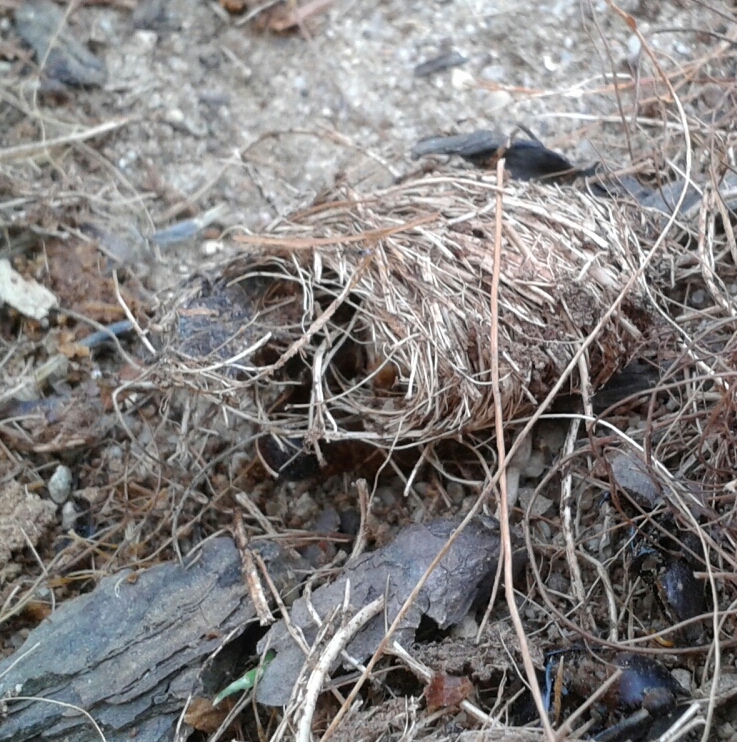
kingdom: Animalia
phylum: Arthropoda
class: Insecta
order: Coleoptera
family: Dryophthoridae
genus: Rhynchophorus
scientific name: Rhynchophorus ferrugineus
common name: Red palm weevil
